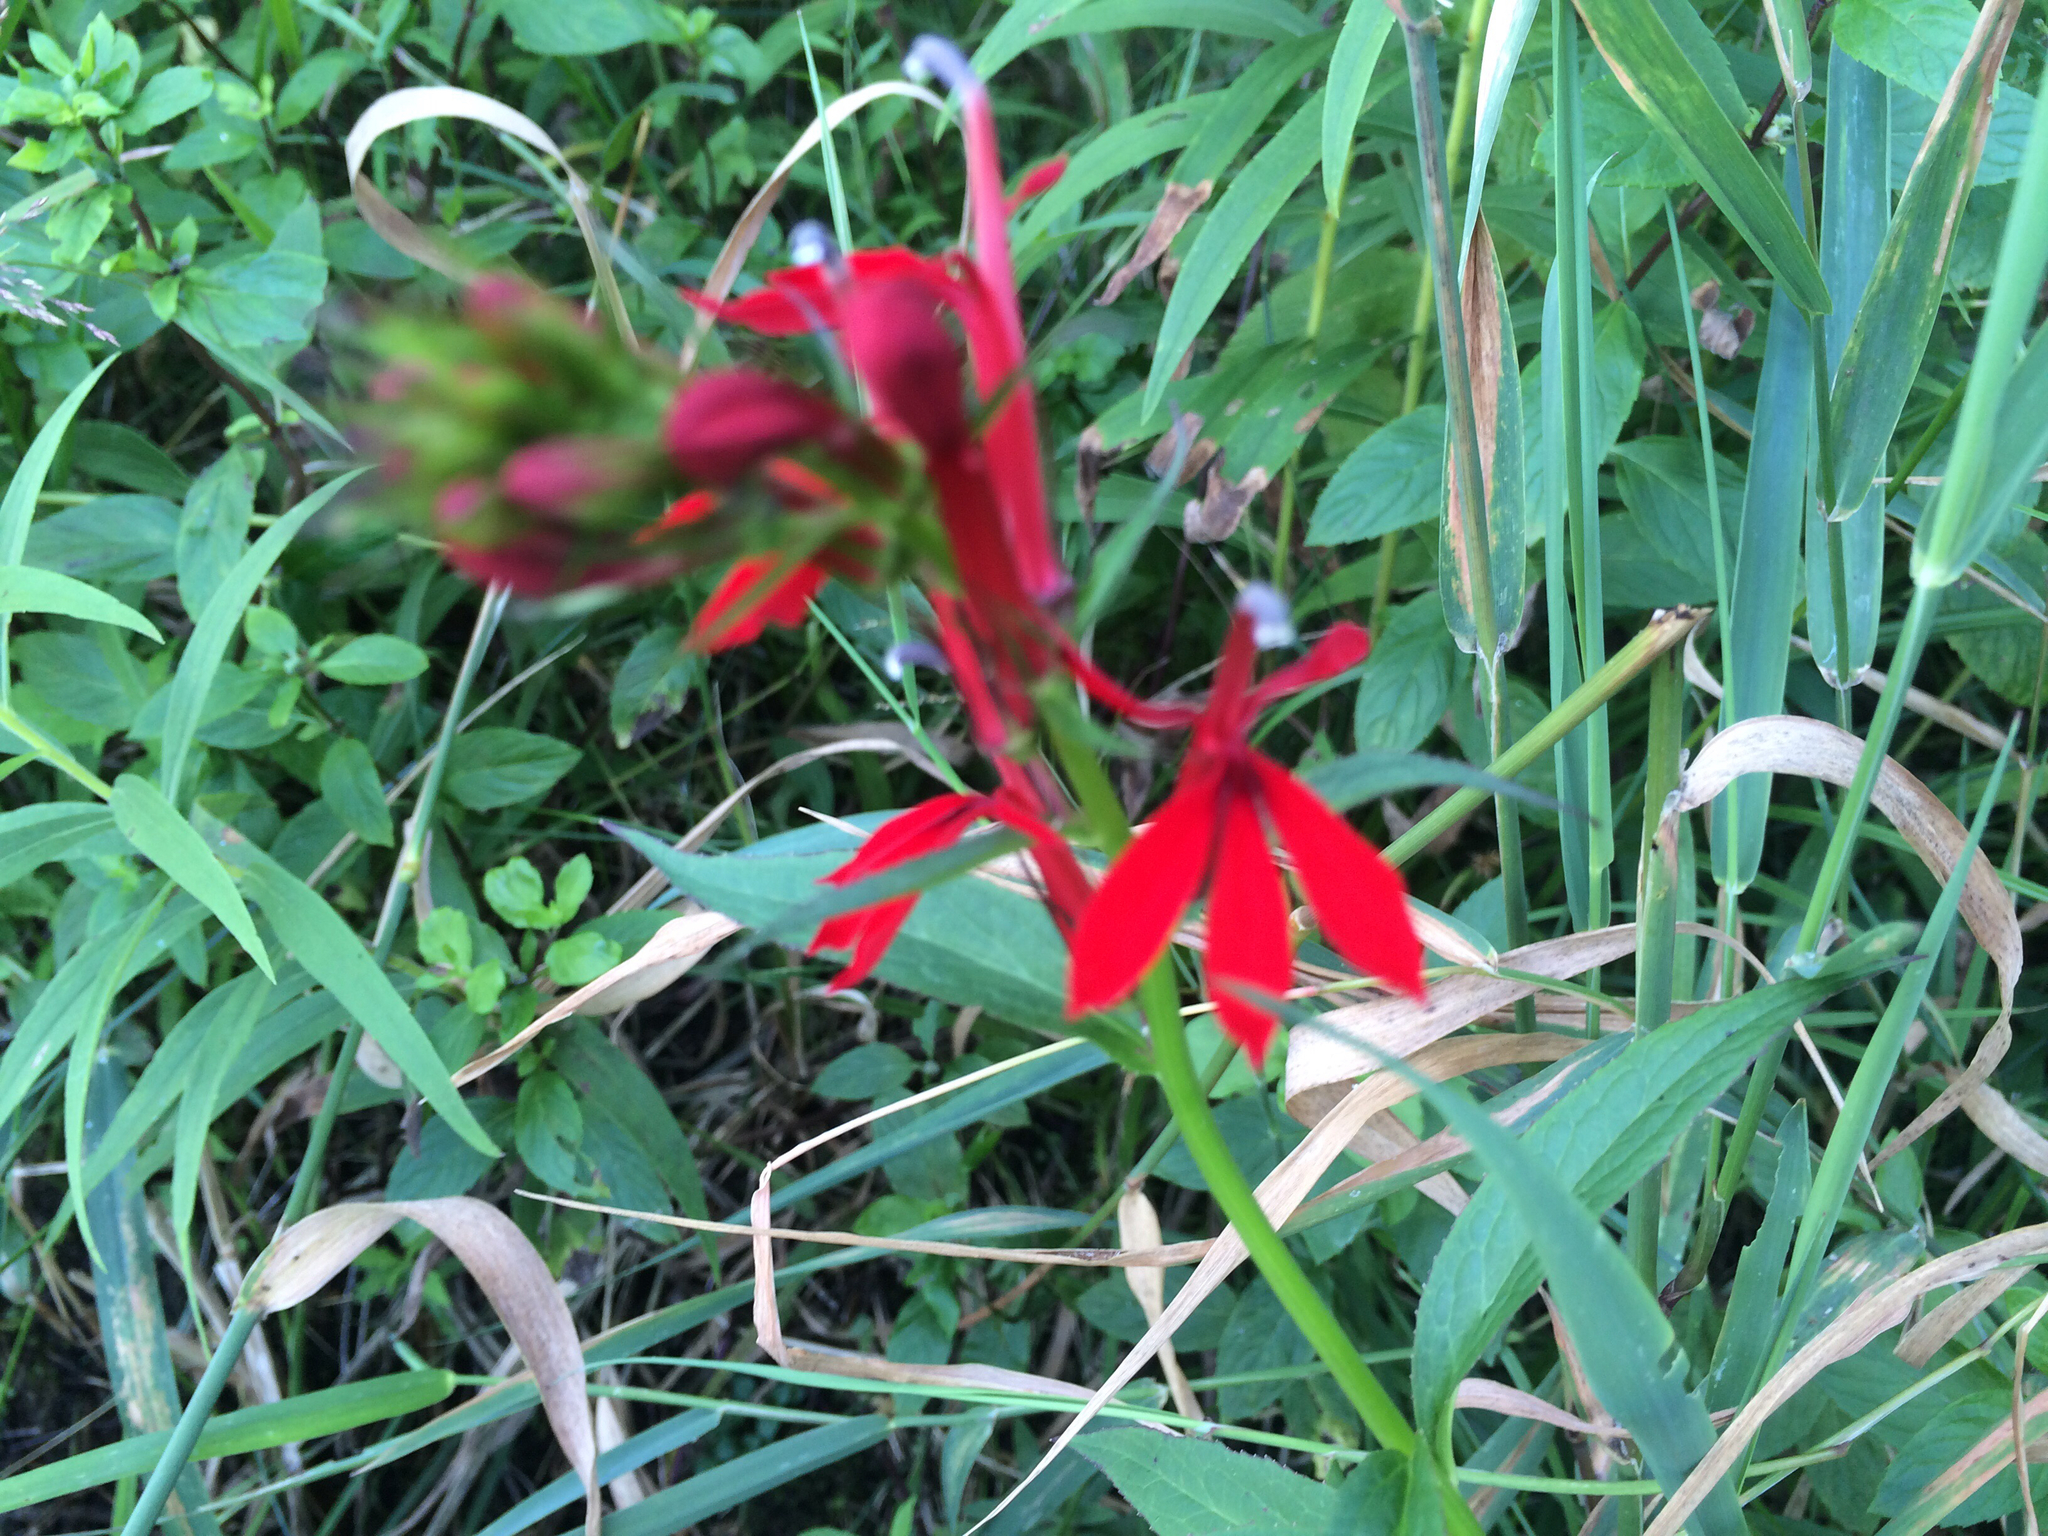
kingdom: Plantae
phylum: Tracheophyta
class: Magnoliopsida
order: Asterales
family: Campanulaceae
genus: Lobelia
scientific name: Lobelia cardinalis
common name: Cardinal flower
